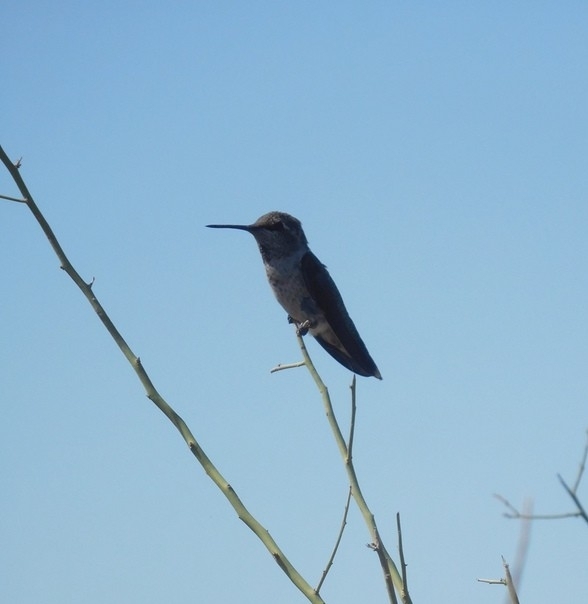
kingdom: Animalia
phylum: Chordata
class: Aves
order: Apodiformes
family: Trochilidae
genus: Calypte
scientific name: Calypte anna
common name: Anna's hummingbird
